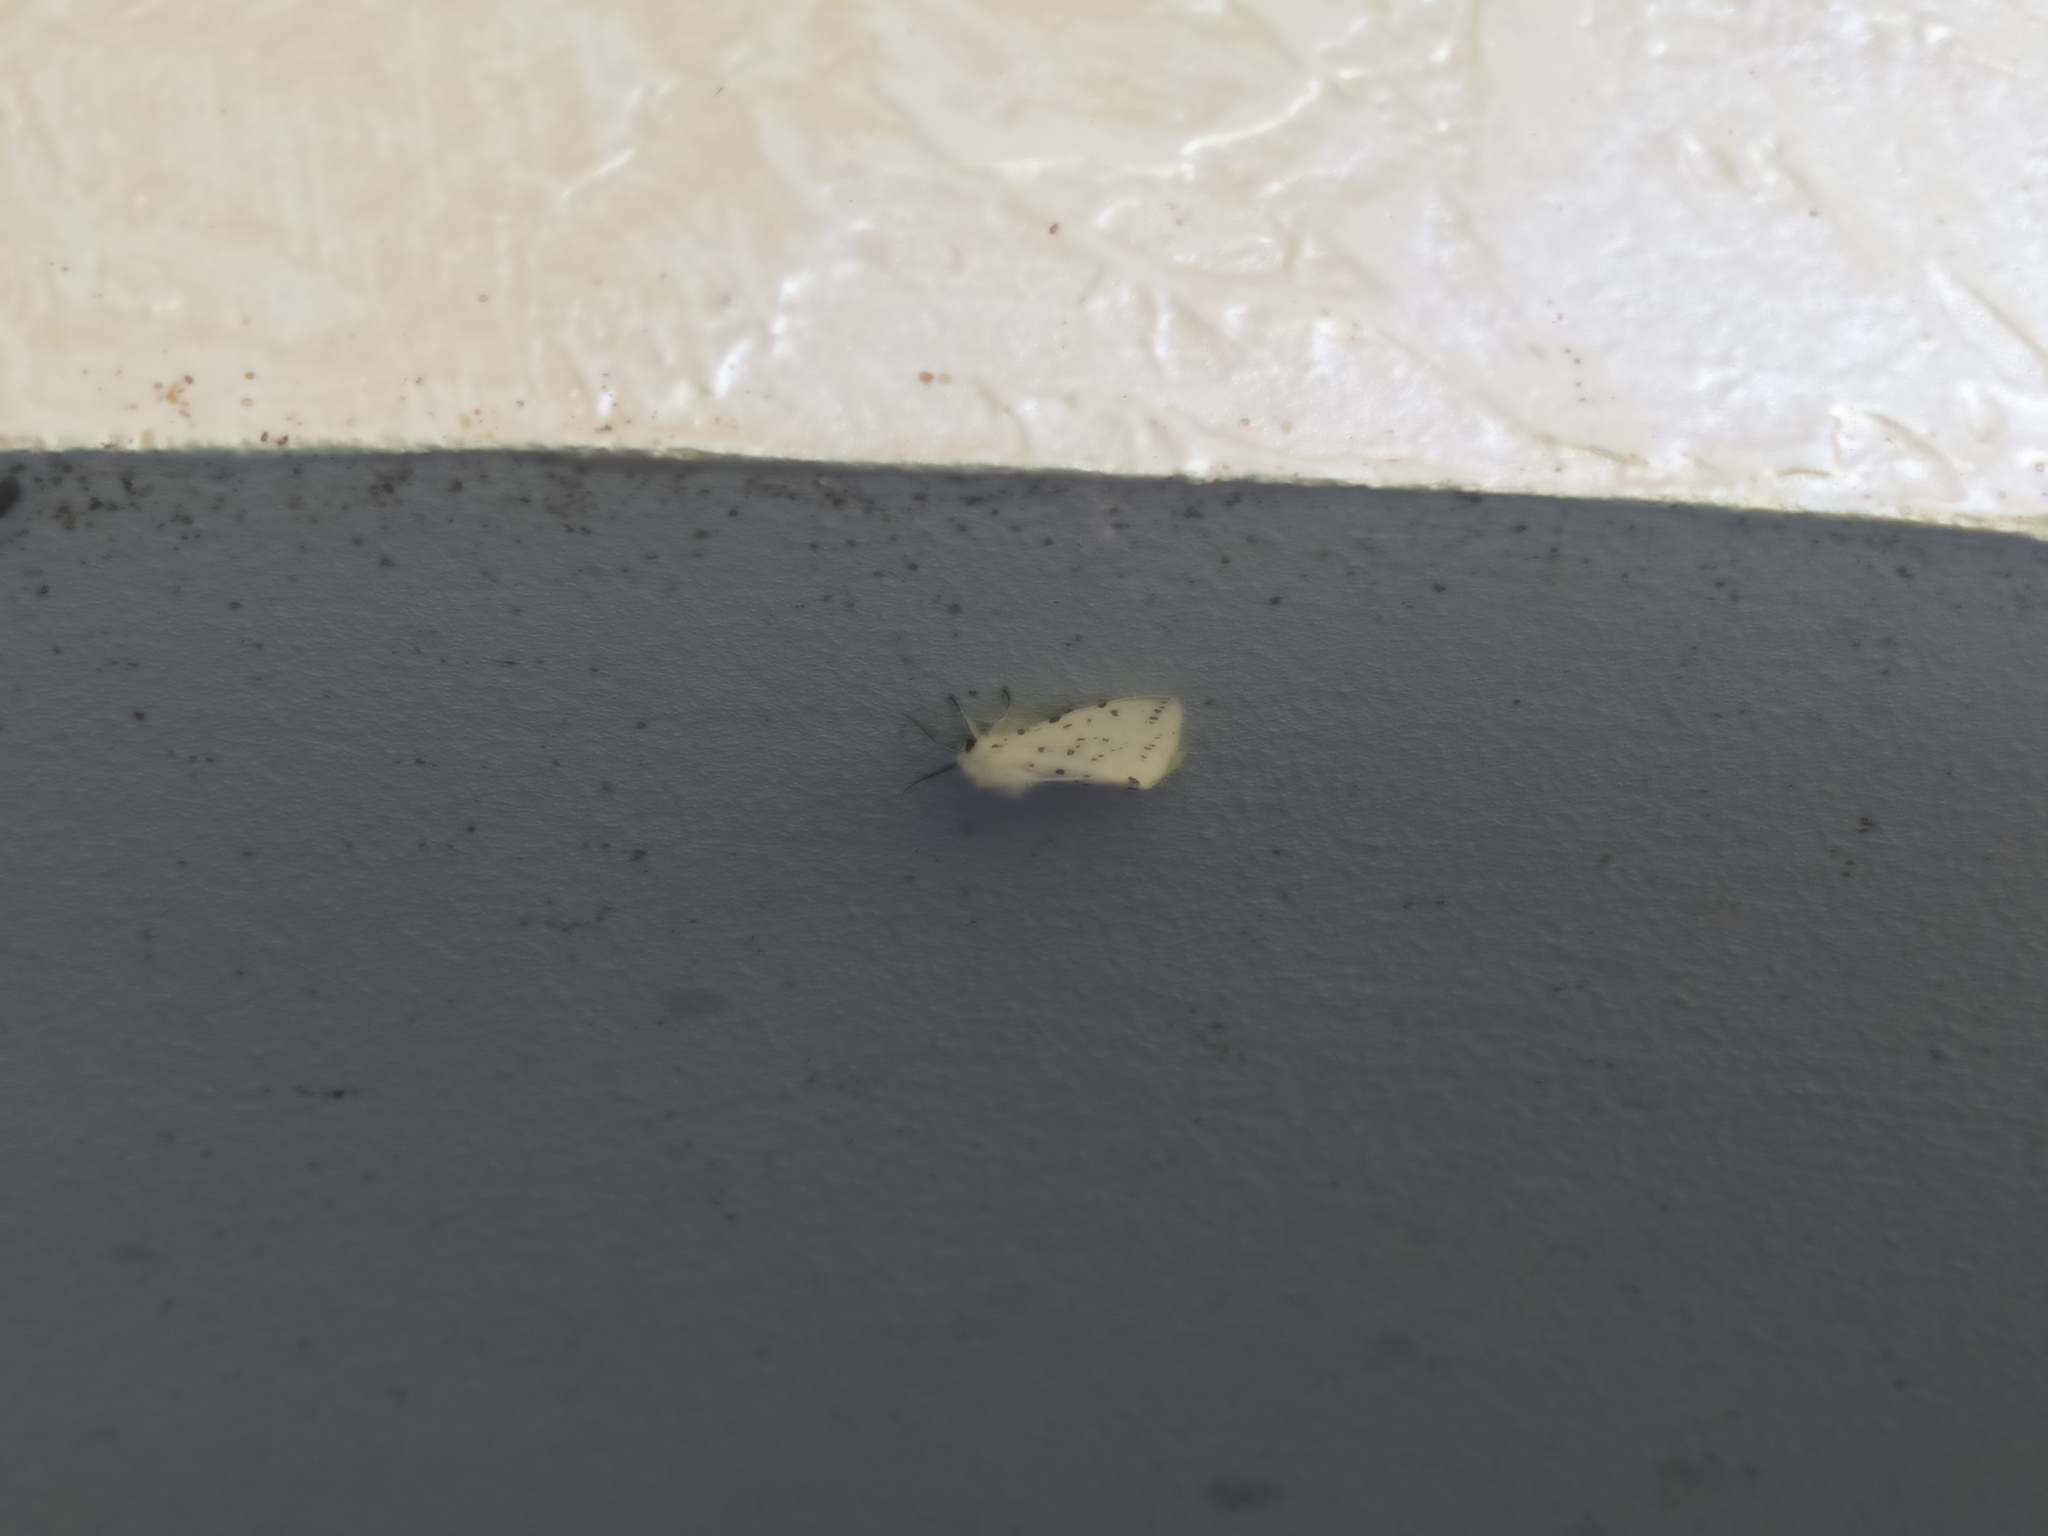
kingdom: Animalia
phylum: Arthropoda
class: Insecta
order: Lepidoptera
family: Erebidae
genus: Spilosoma
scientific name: Spilosoma lubricipeda
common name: White ermine
